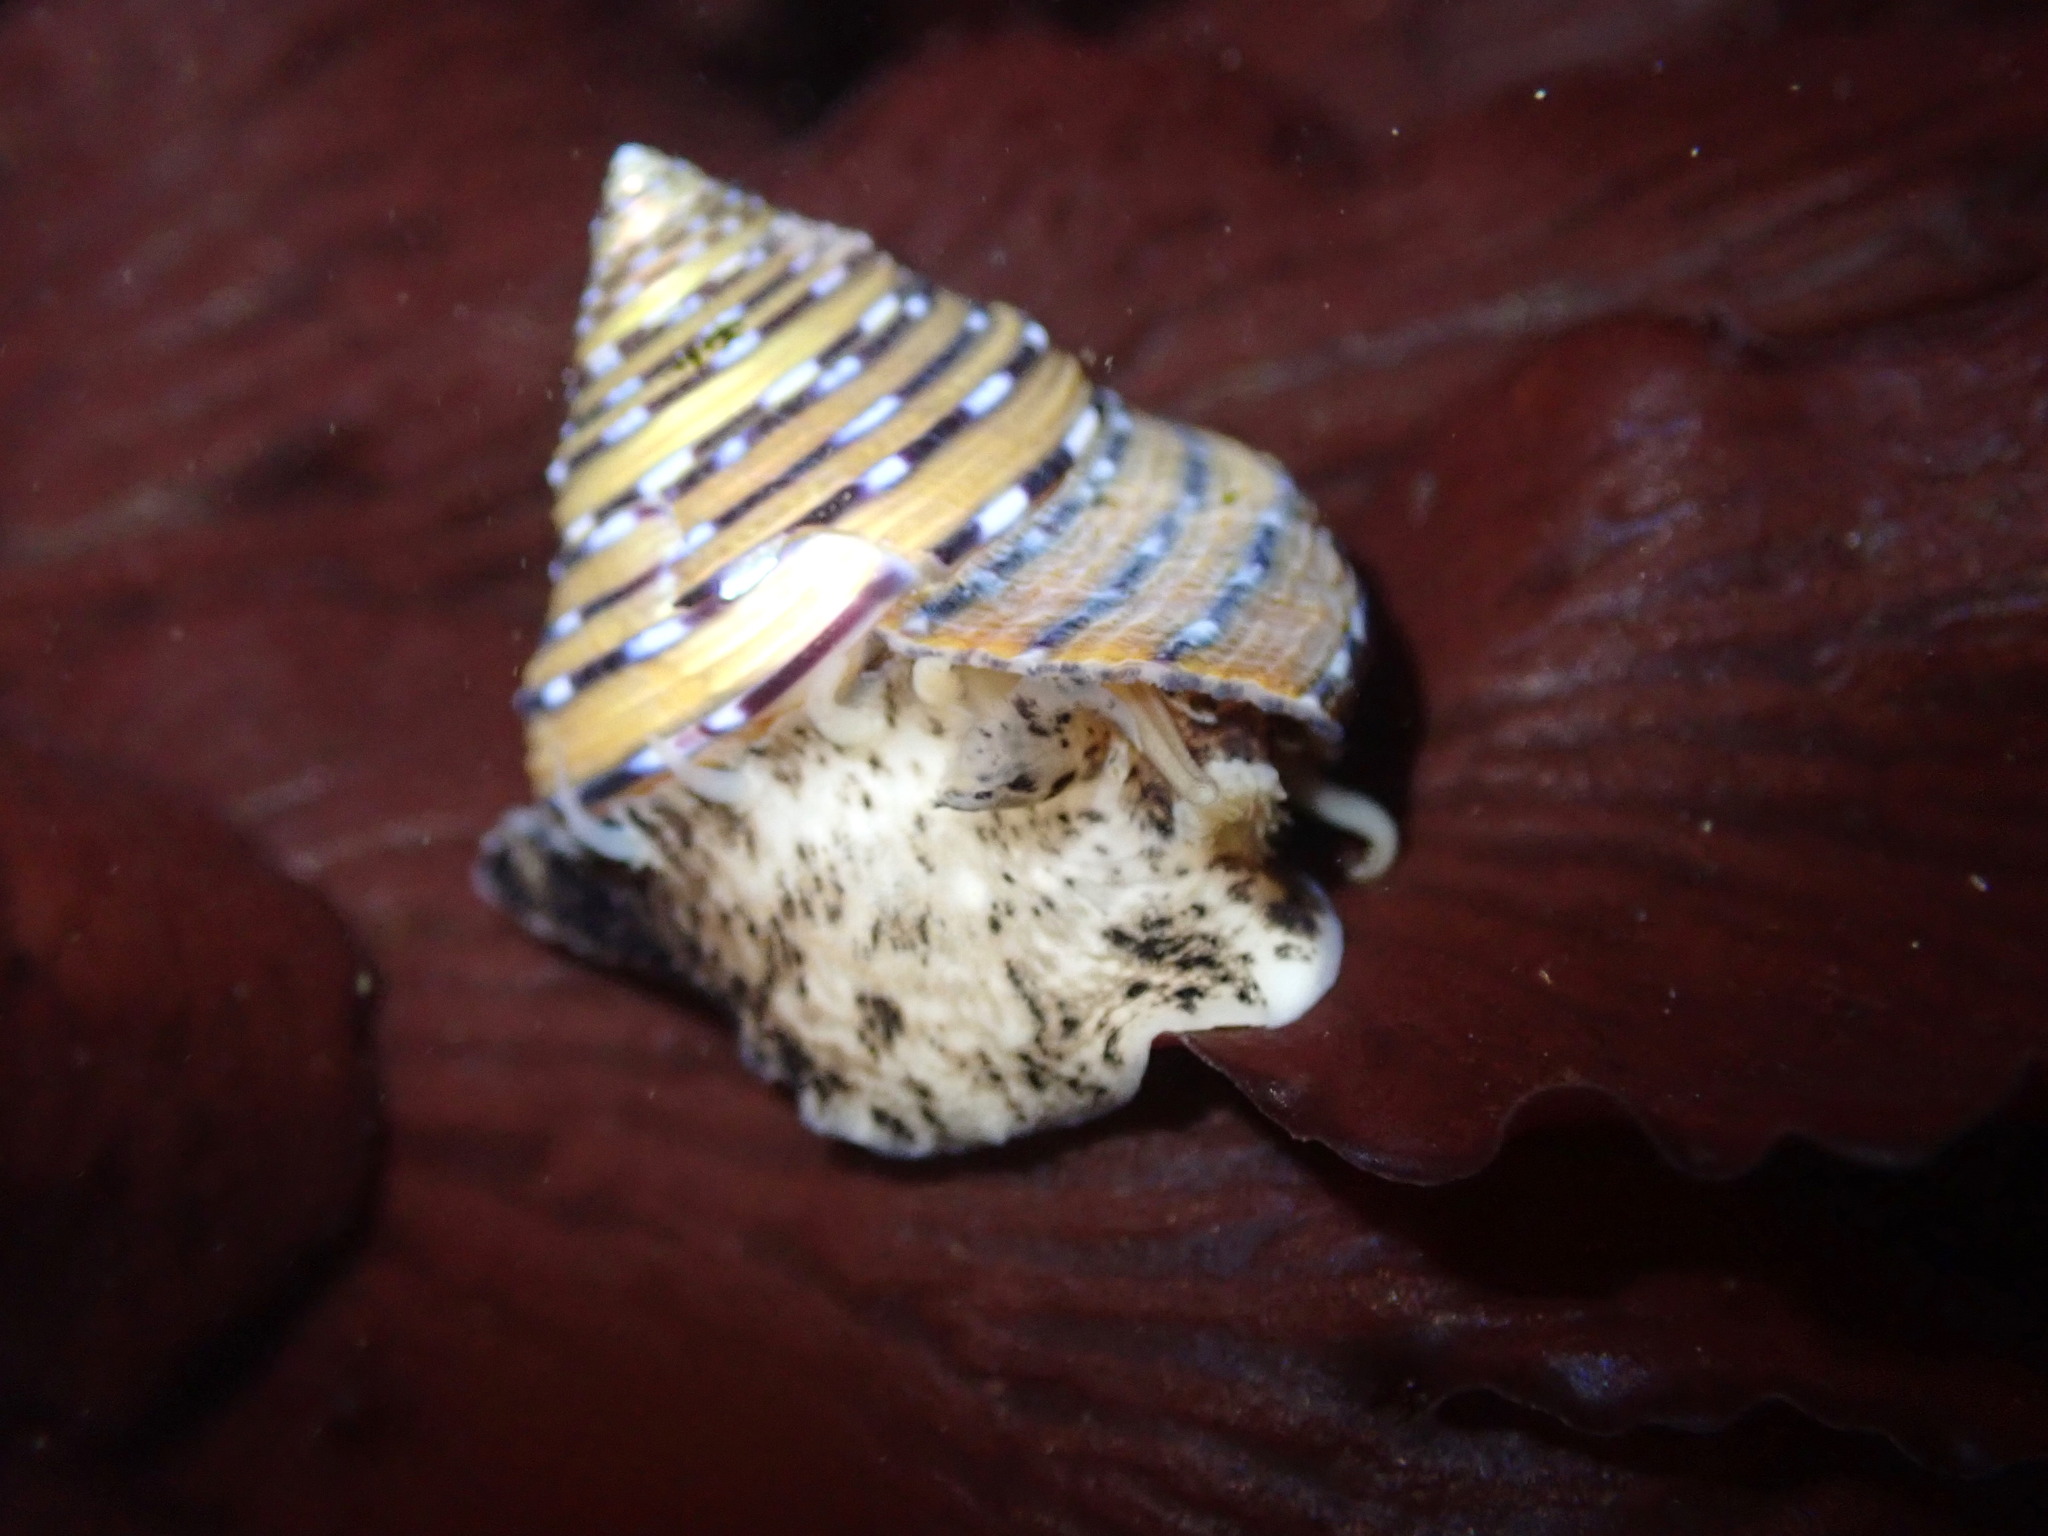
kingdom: Animalia
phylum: Mollusca
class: Gastropoda
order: Trochida
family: Calliostomatidae
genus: Calliostoma
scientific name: Calliostoma tricolor
